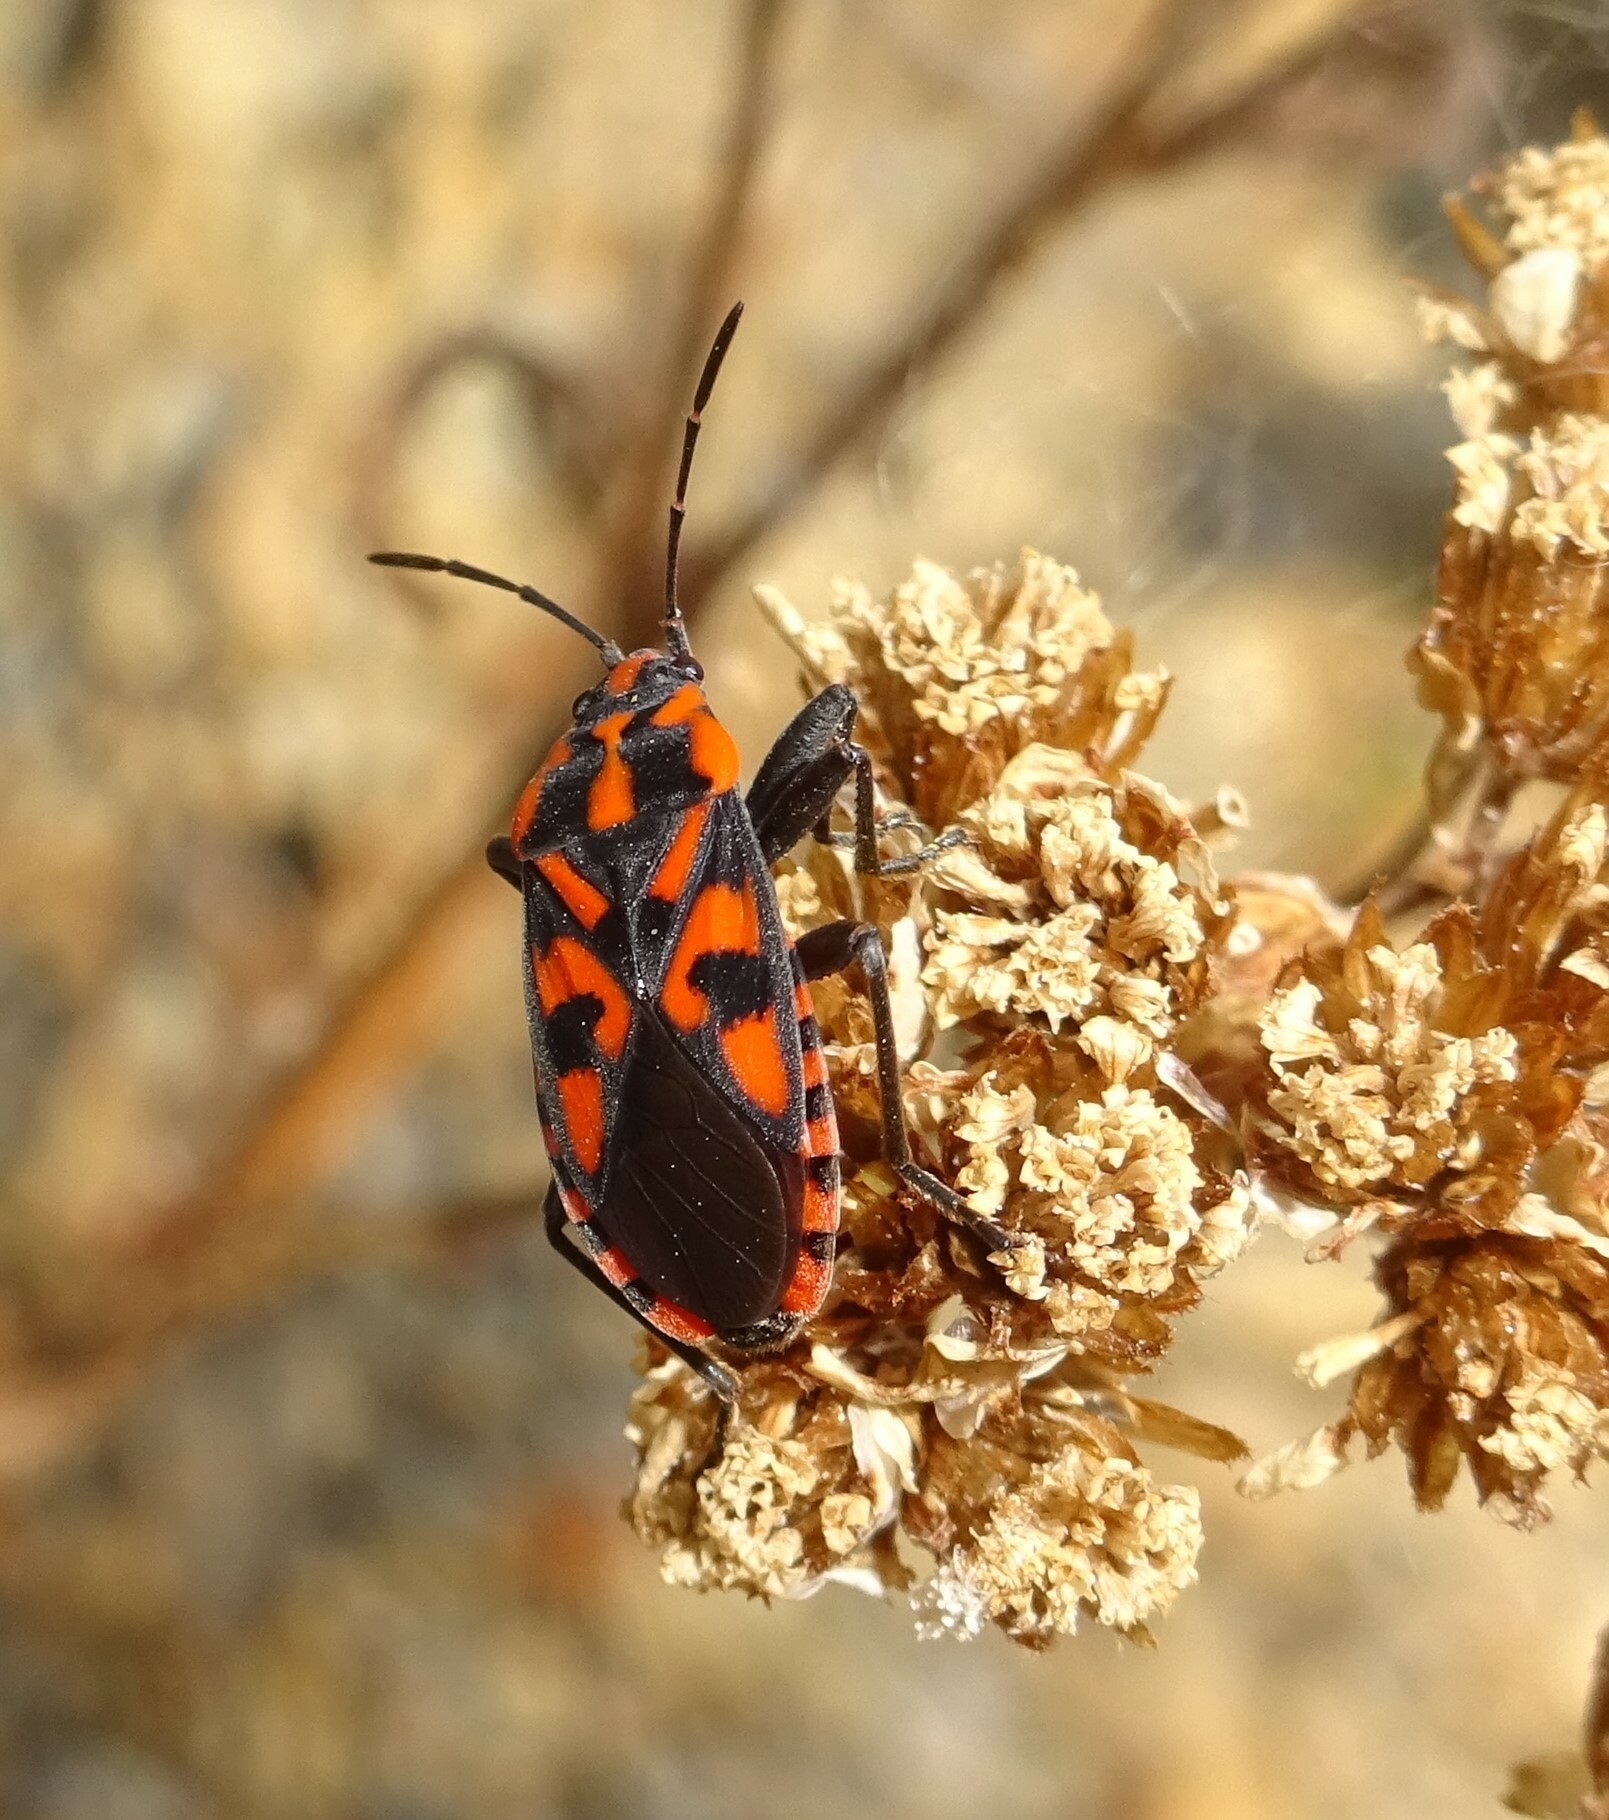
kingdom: Animalia
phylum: Arthropoda
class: Insecta
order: Hemiptera
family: Lygaeidae
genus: Spilostethus
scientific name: Spilostethus saxatilis
